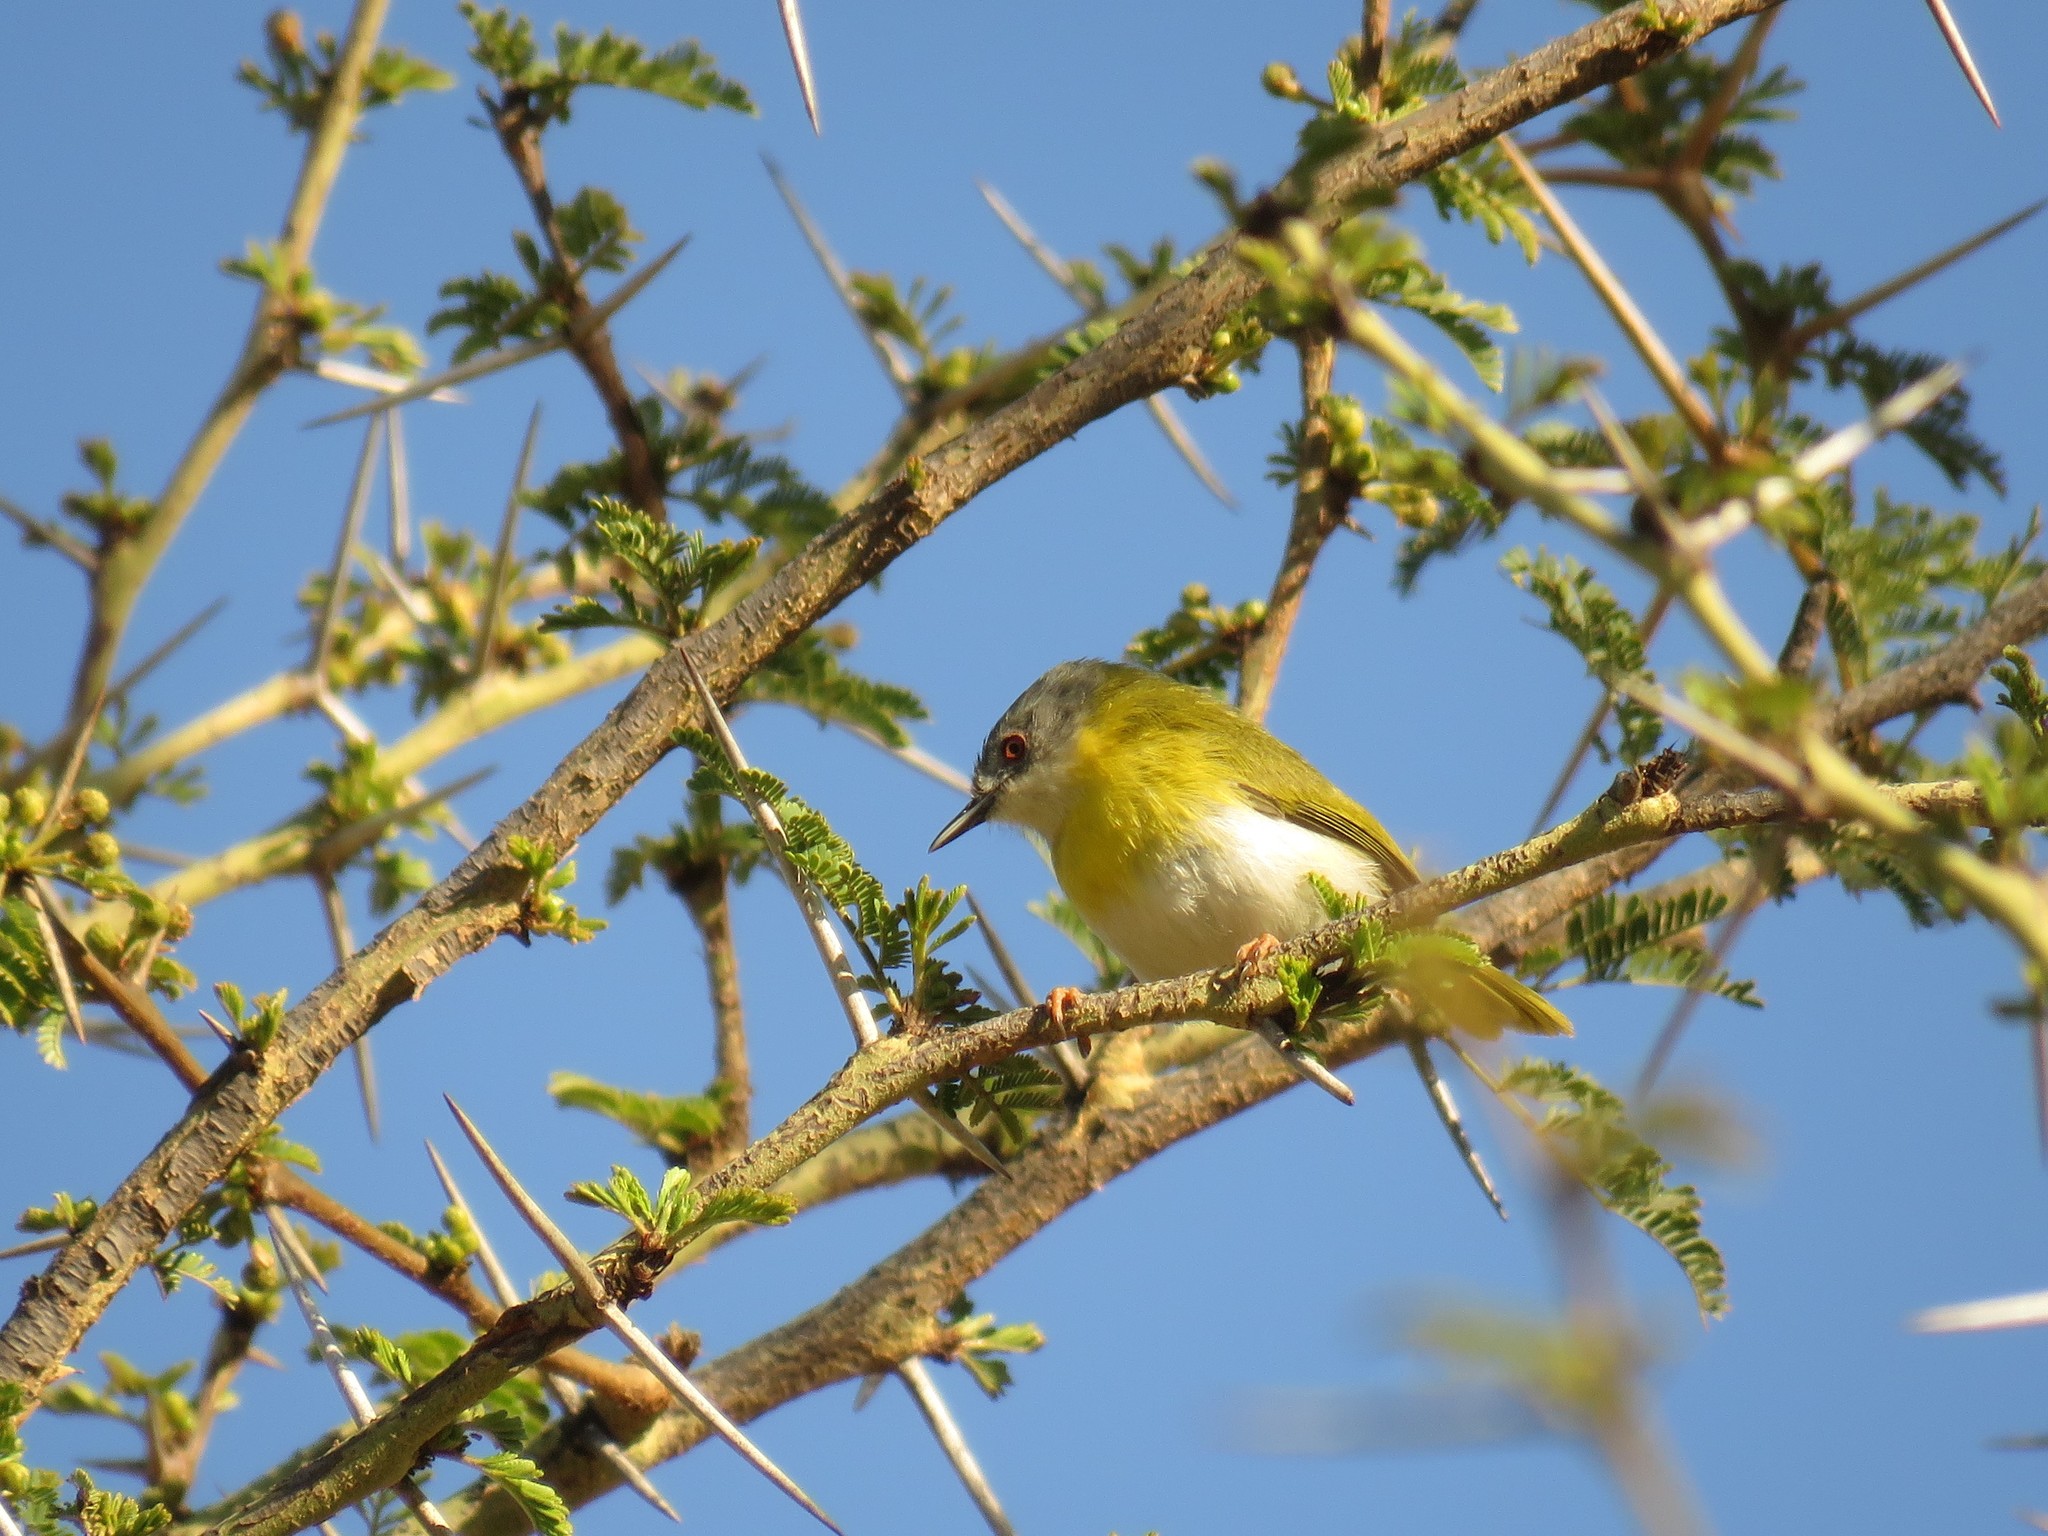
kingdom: Animalia
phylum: Chordata
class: Aves
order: Passeriformes
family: Cisticolidae
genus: Apalis
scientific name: Apalis flavida
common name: Yellow-breasted apalis
